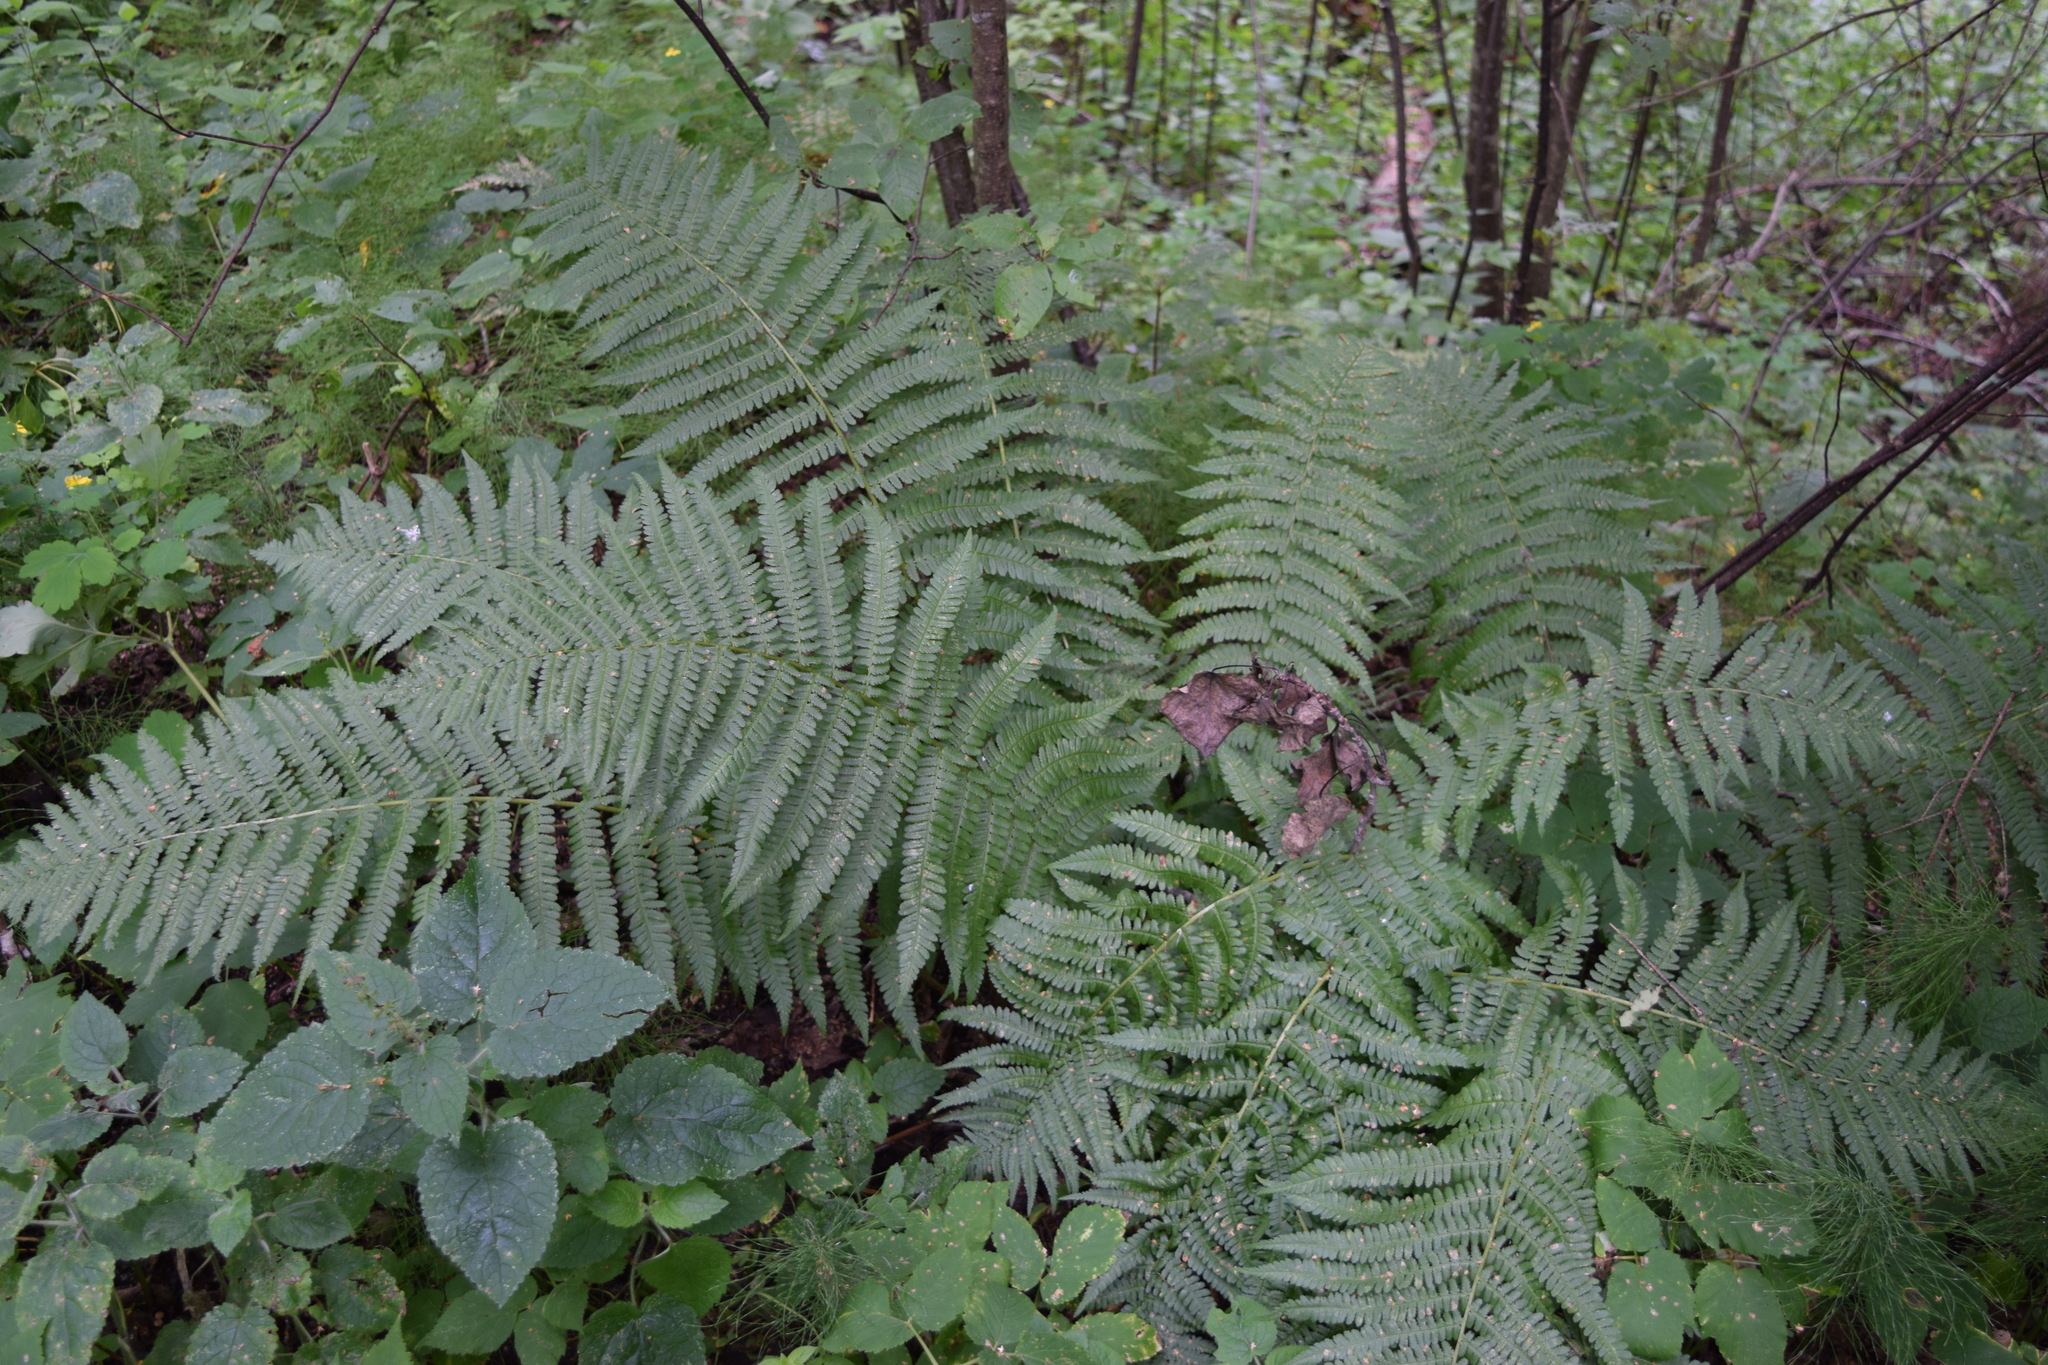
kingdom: Plantae
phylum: Tracheophyta
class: Polypodiopsida
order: Polypodiales
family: Dryopteridaceae
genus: Dryopteris
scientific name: Dryopteris filix-mas
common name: Male fern
